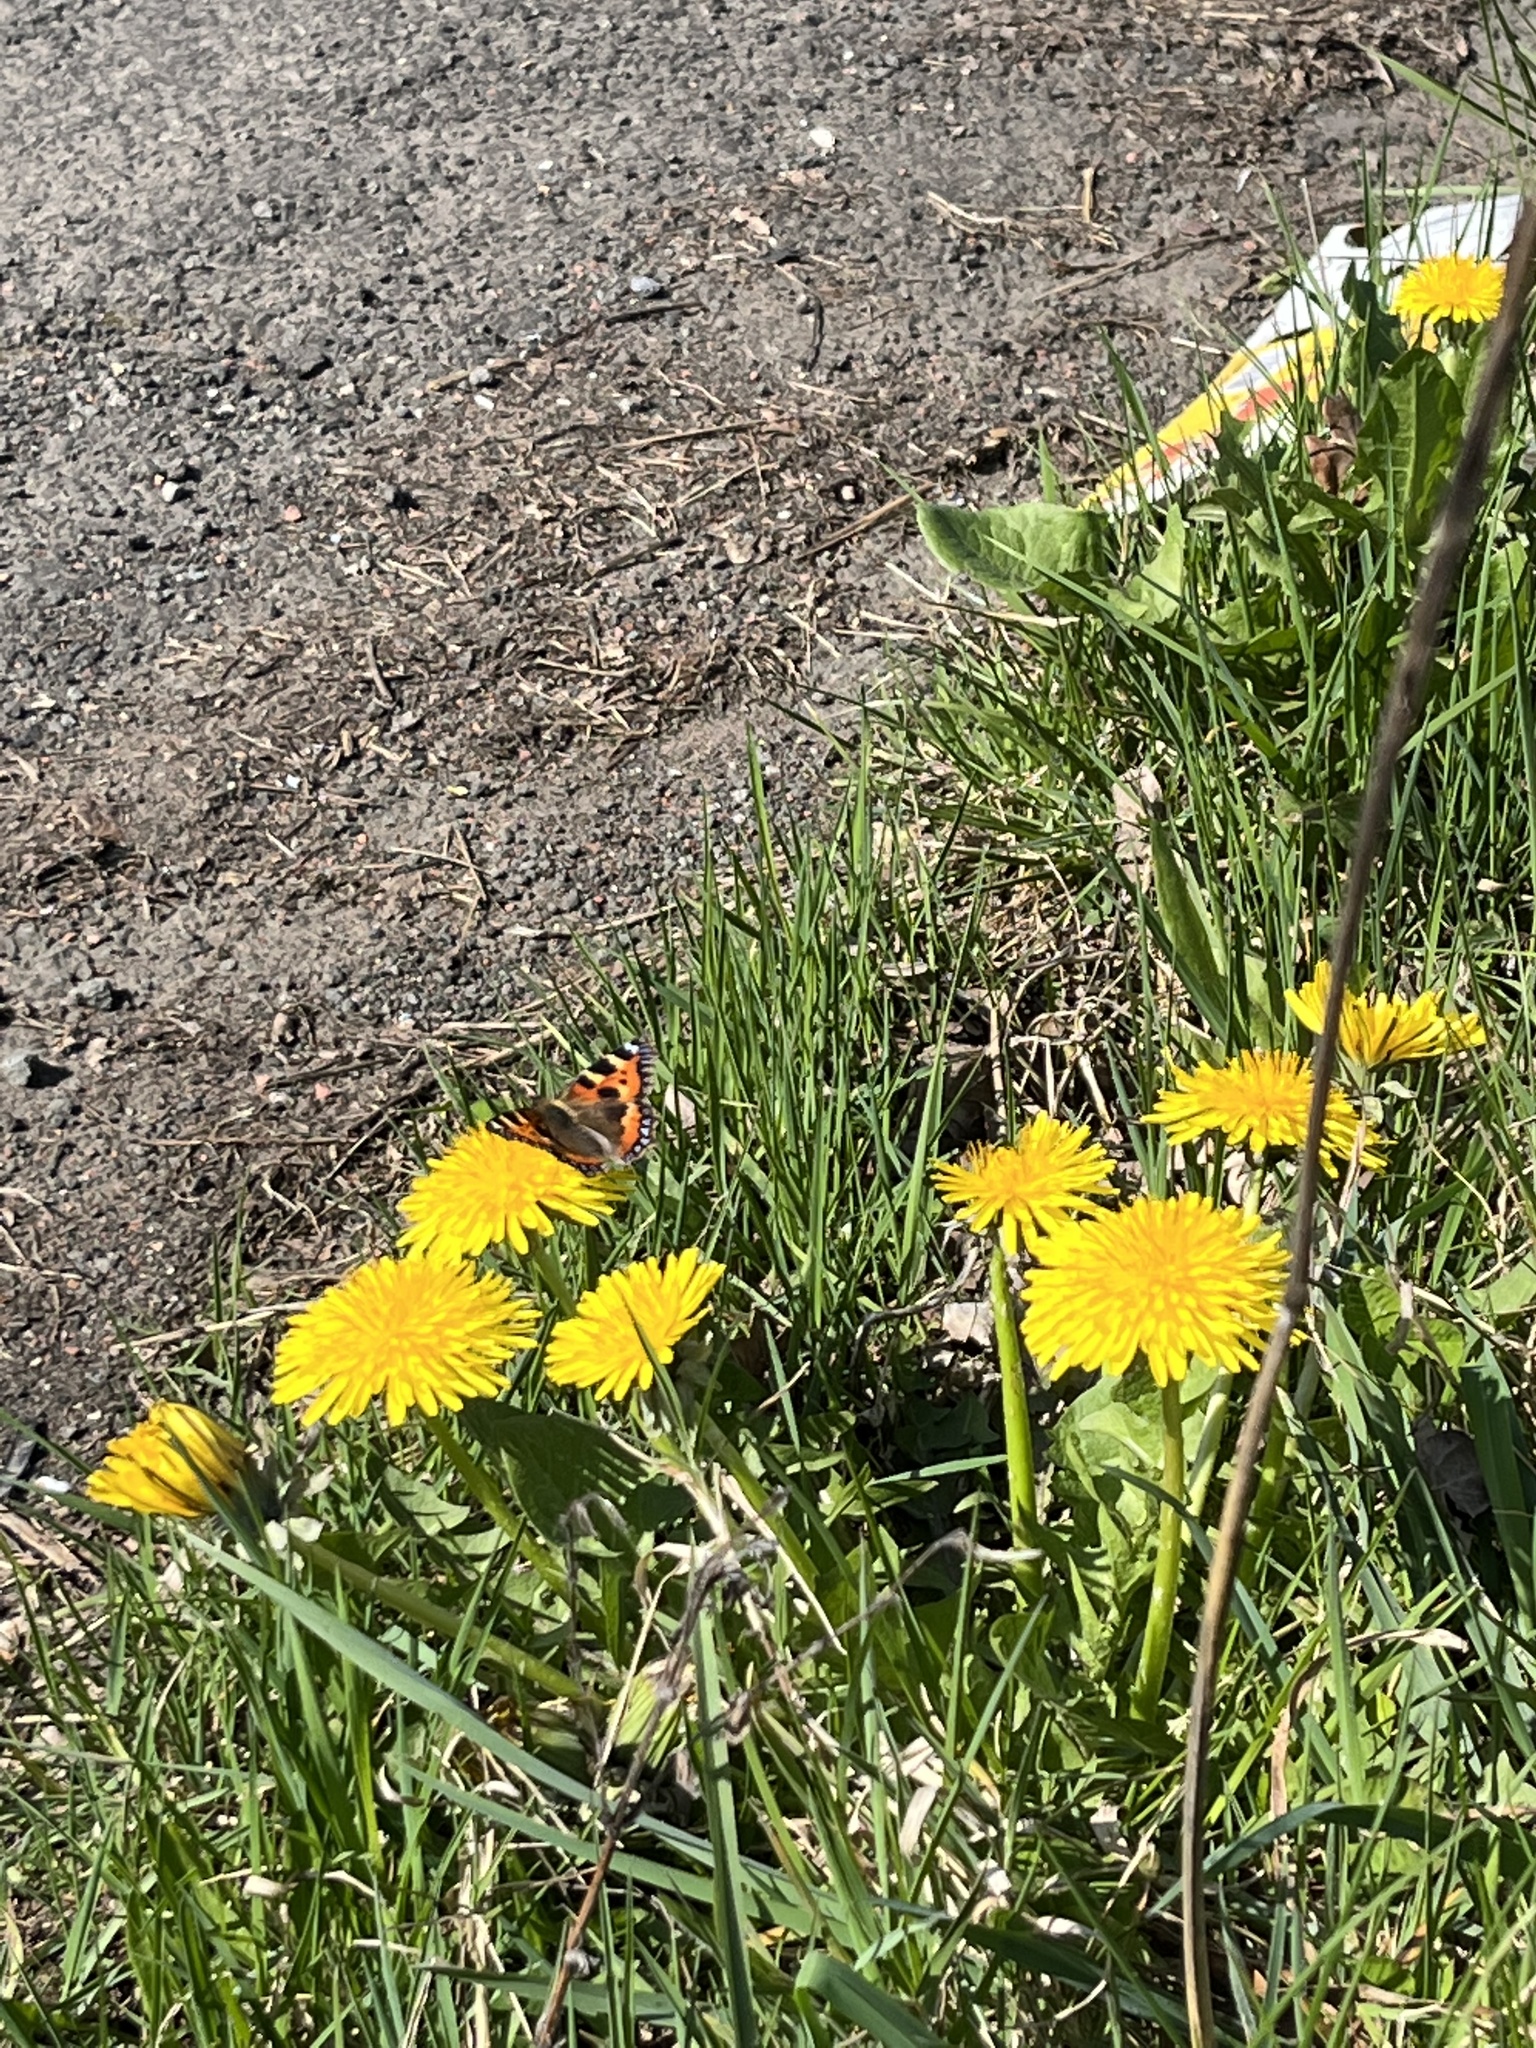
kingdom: Animalia
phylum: Arthropoda
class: Insecta
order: Lepidoptera
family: Nymphalidae
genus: Aglais
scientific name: Aglais urticae
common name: Small tortoiseshell
